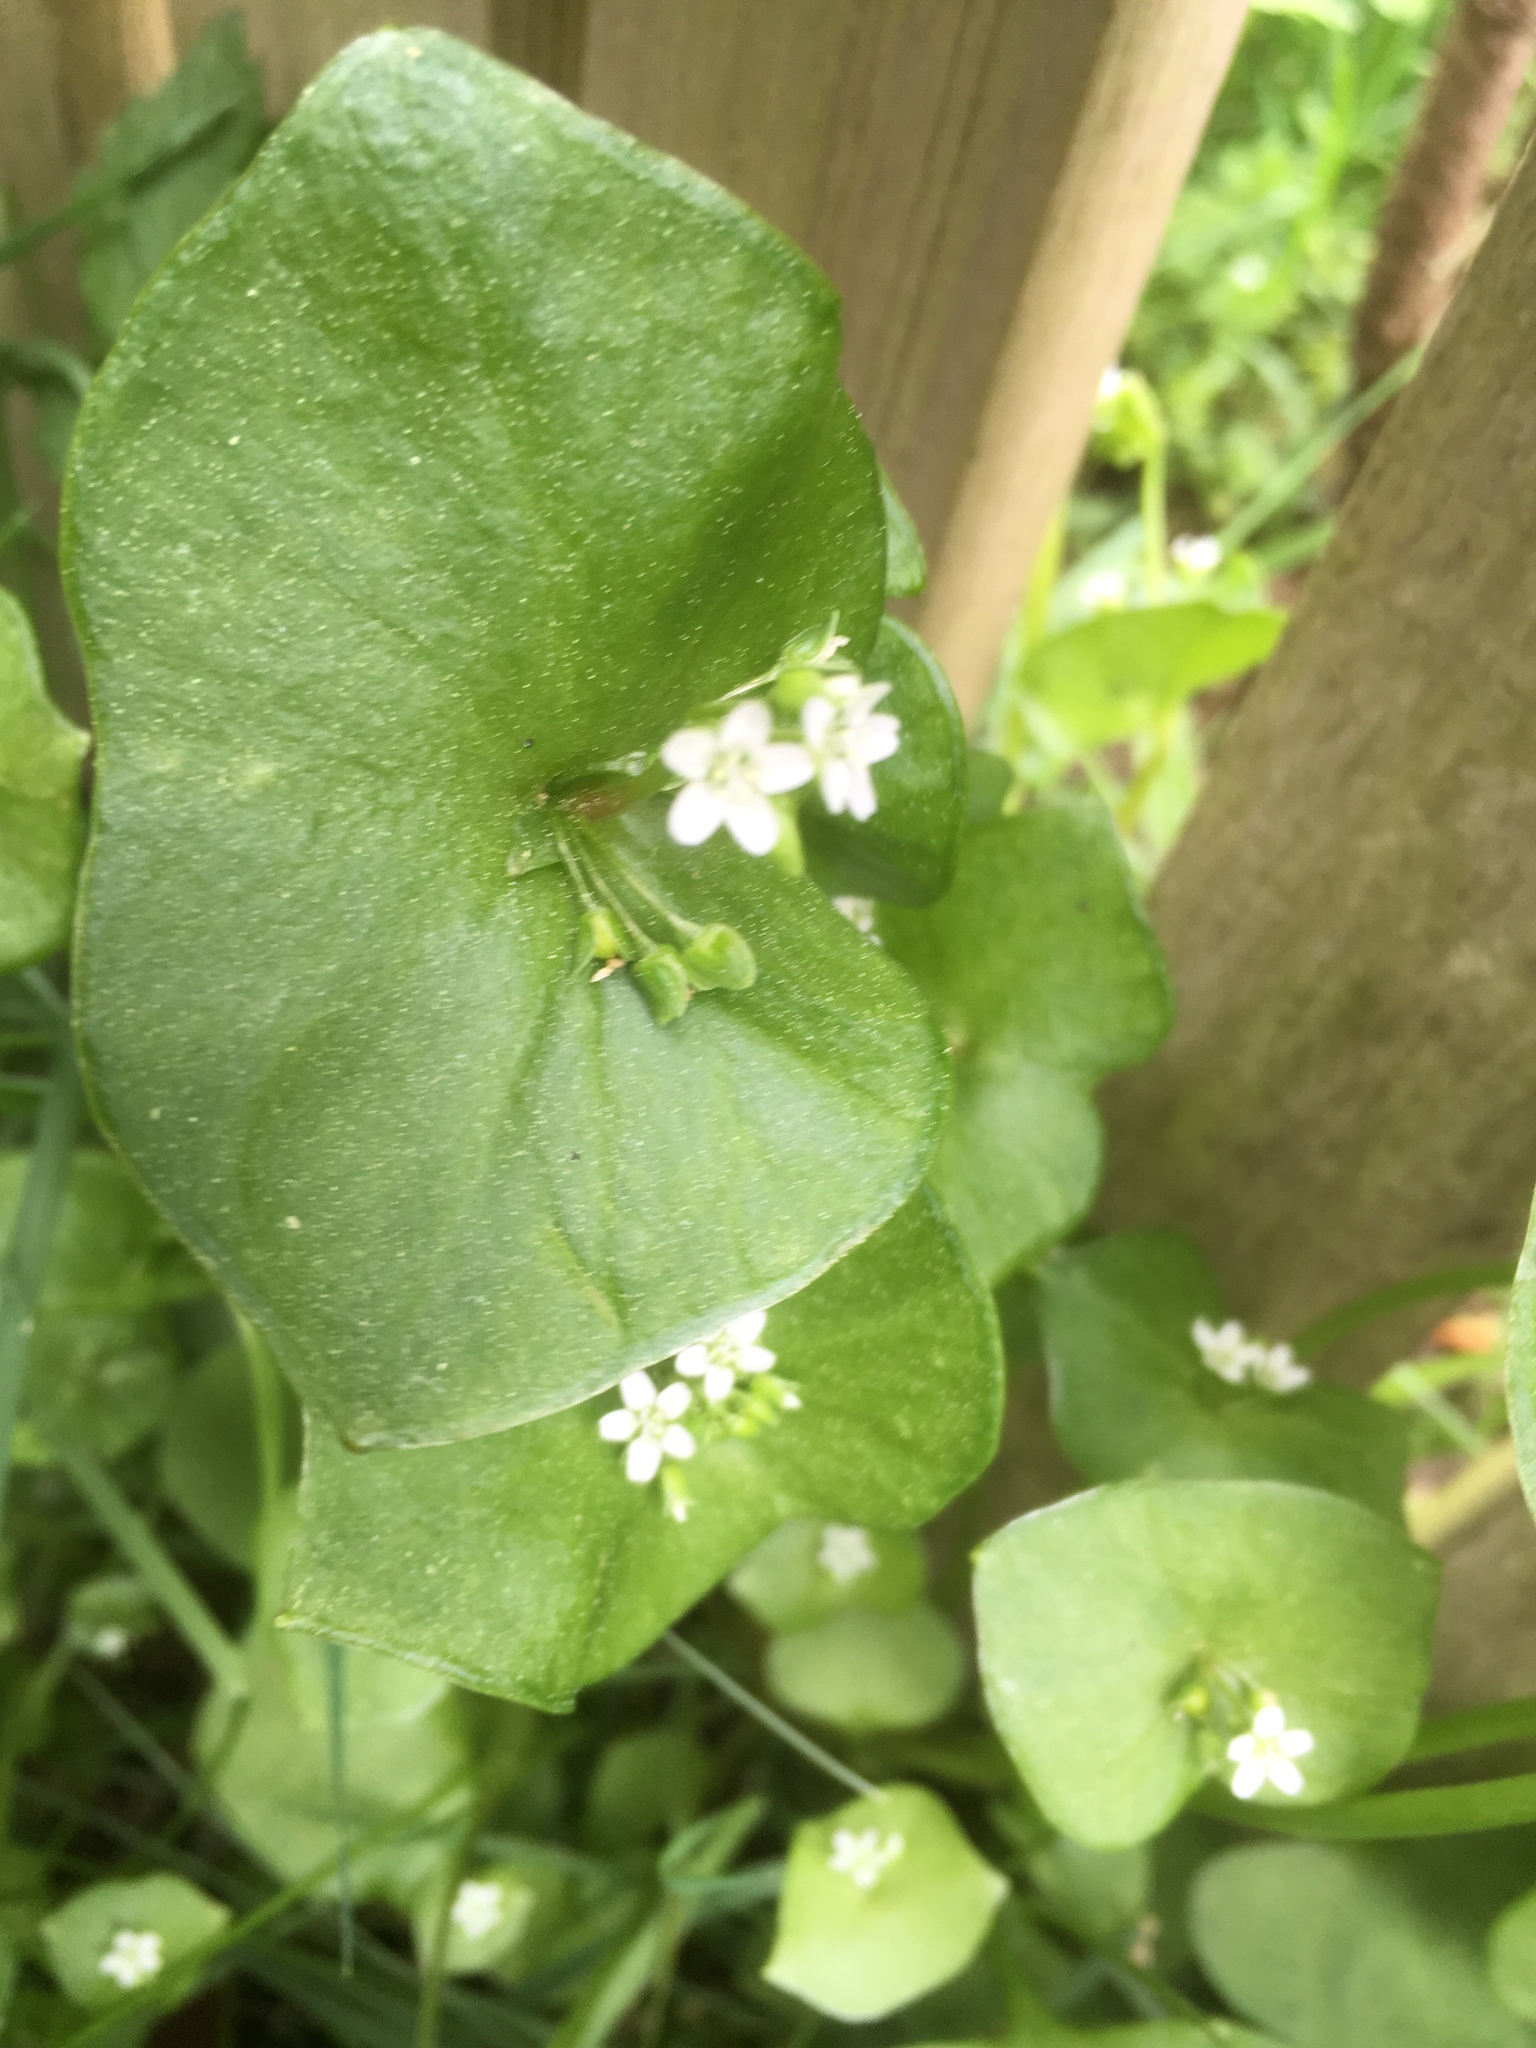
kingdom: Plantae
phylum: Tracheophyta
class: Magnoliopsida
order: Caryophyllales
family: Montiaceae
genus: Claytonia
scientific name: Claytonia perfoliata
